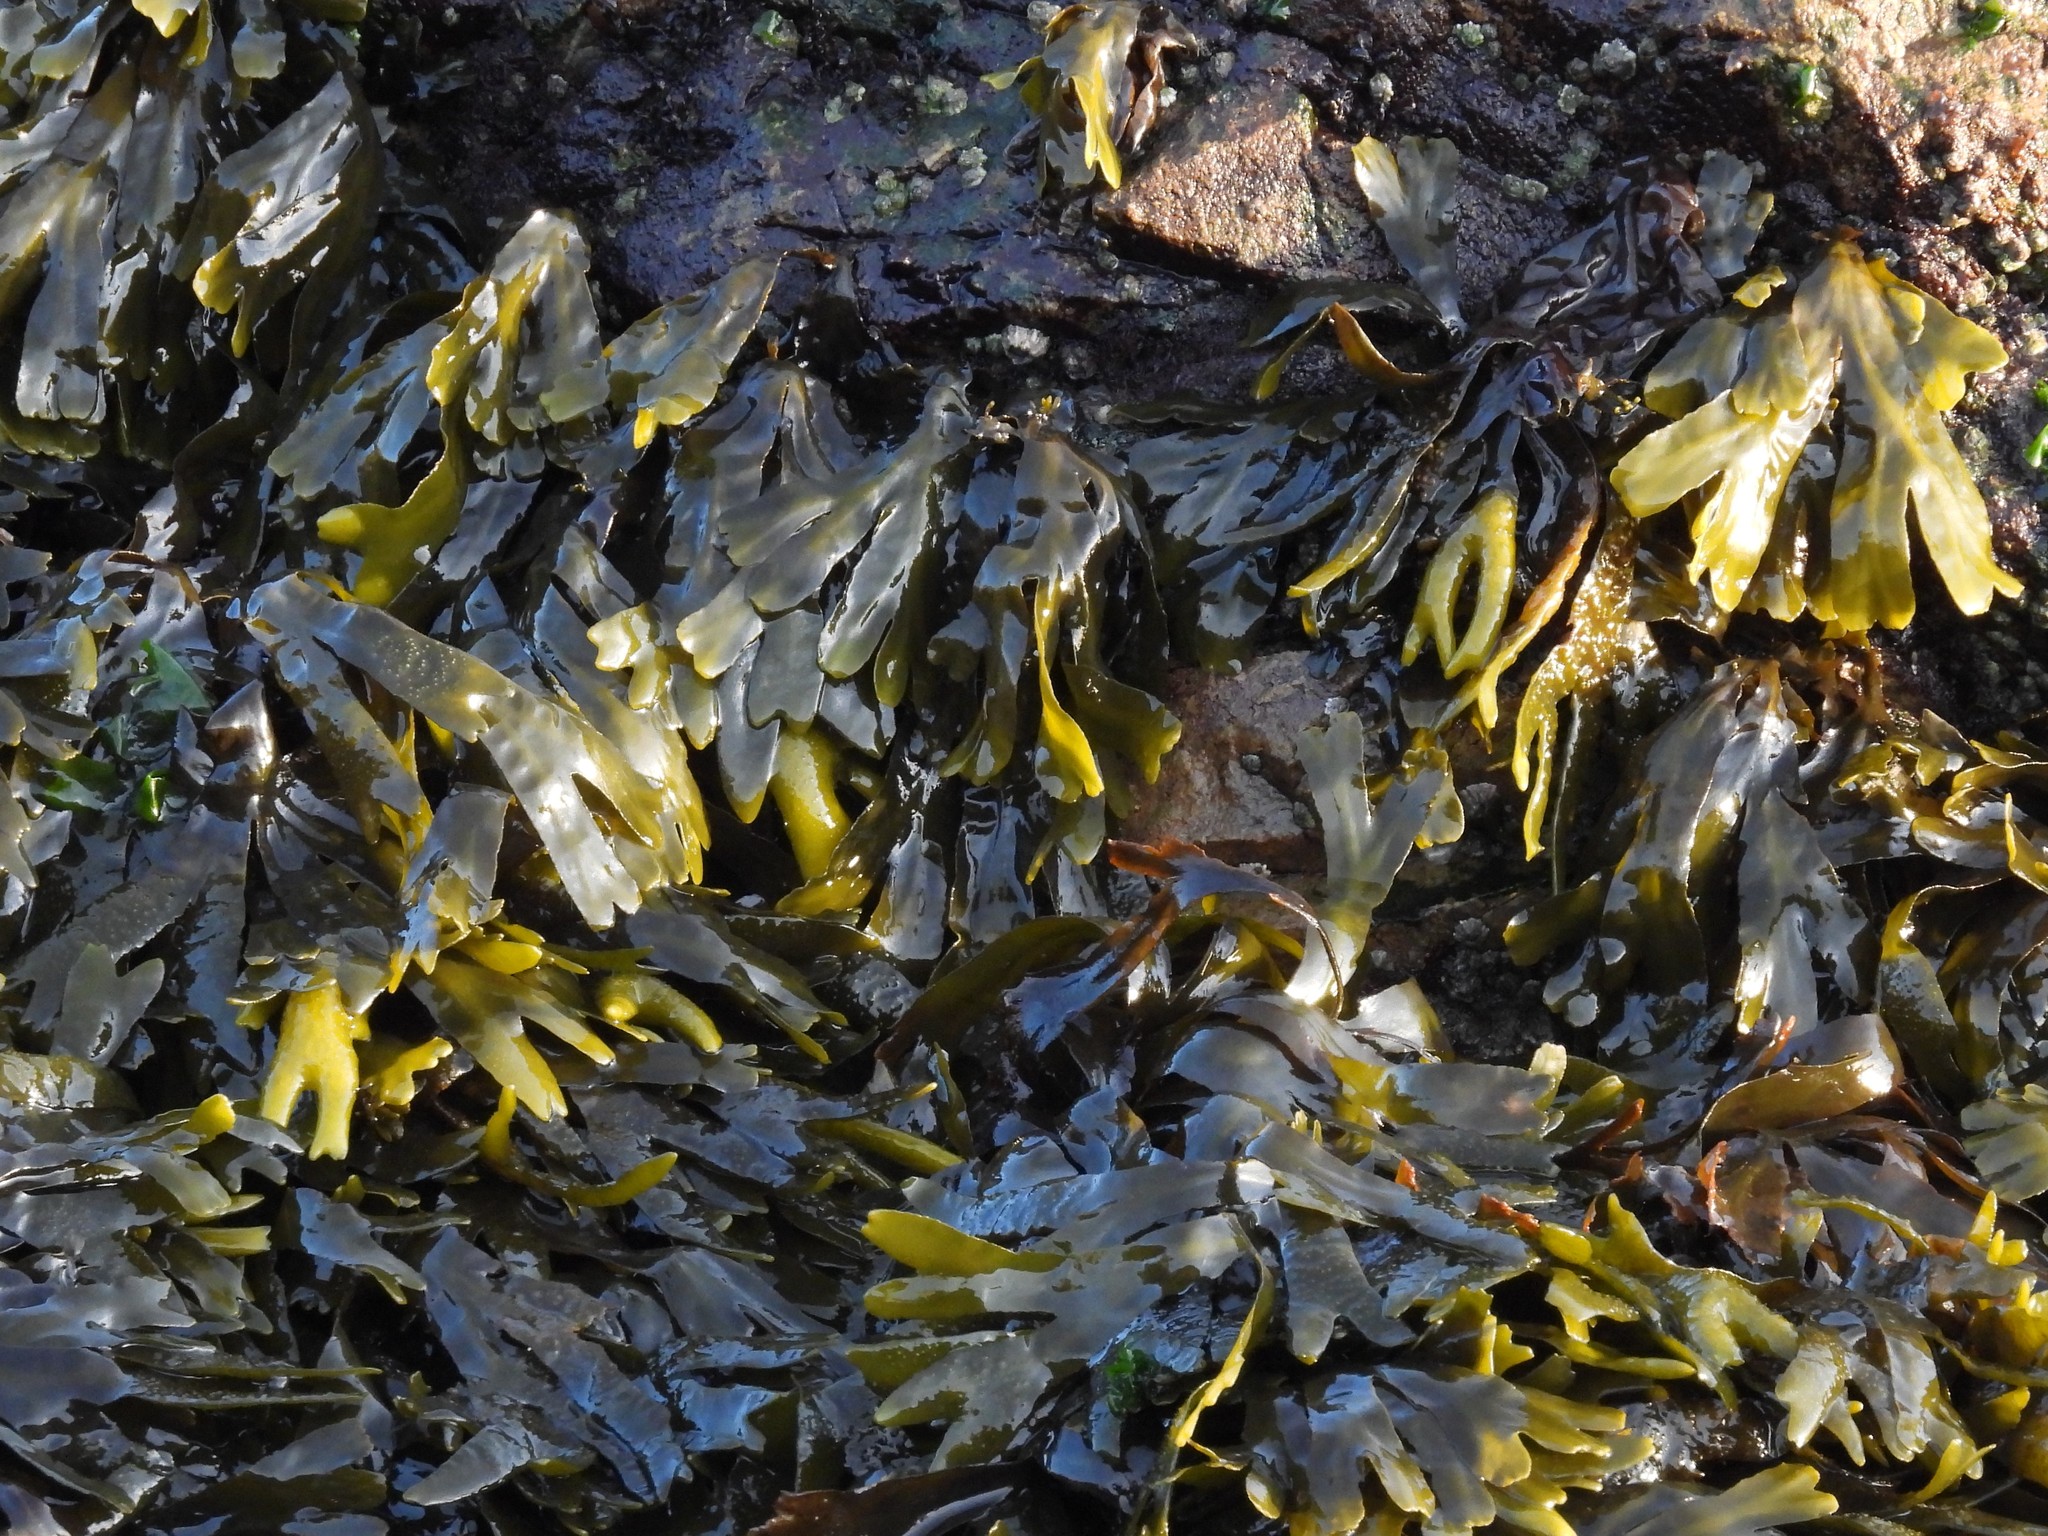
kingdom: Chromista
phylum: Ochrophyta
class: Phaeophyceae
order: Fucales
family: Fucaceae
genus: Fucus
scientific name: Fucus distichus
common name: Rockweed
